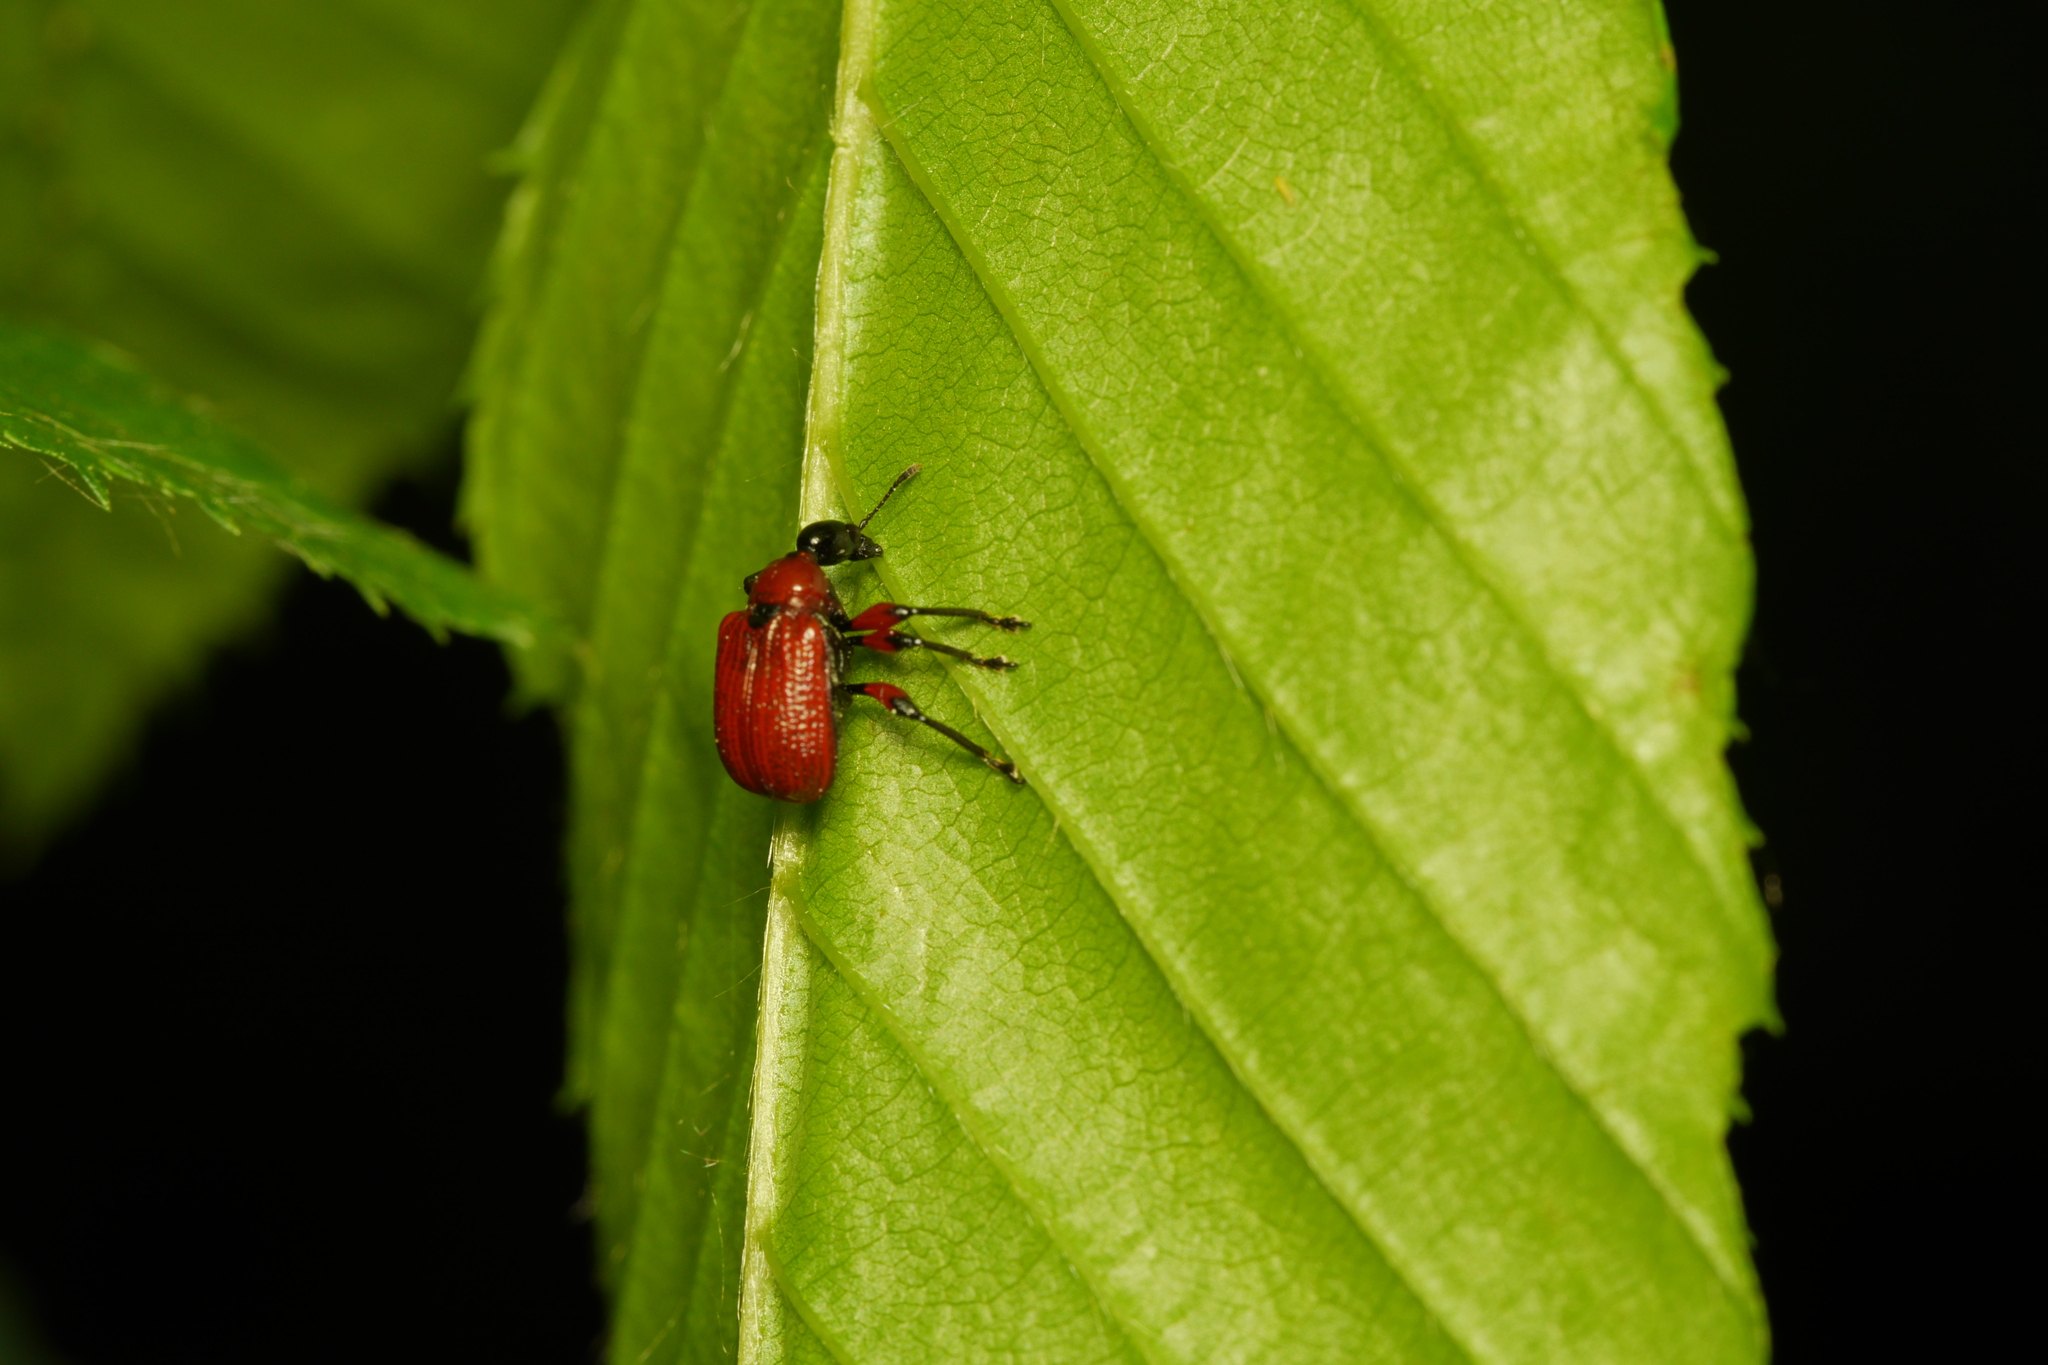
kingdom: Animalia
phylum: Arthropoda
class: Insecta
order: Coleoptera
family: Attelabidae
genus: Apoderus
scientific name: Apoderus coryli
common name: Hazel leaf roller
